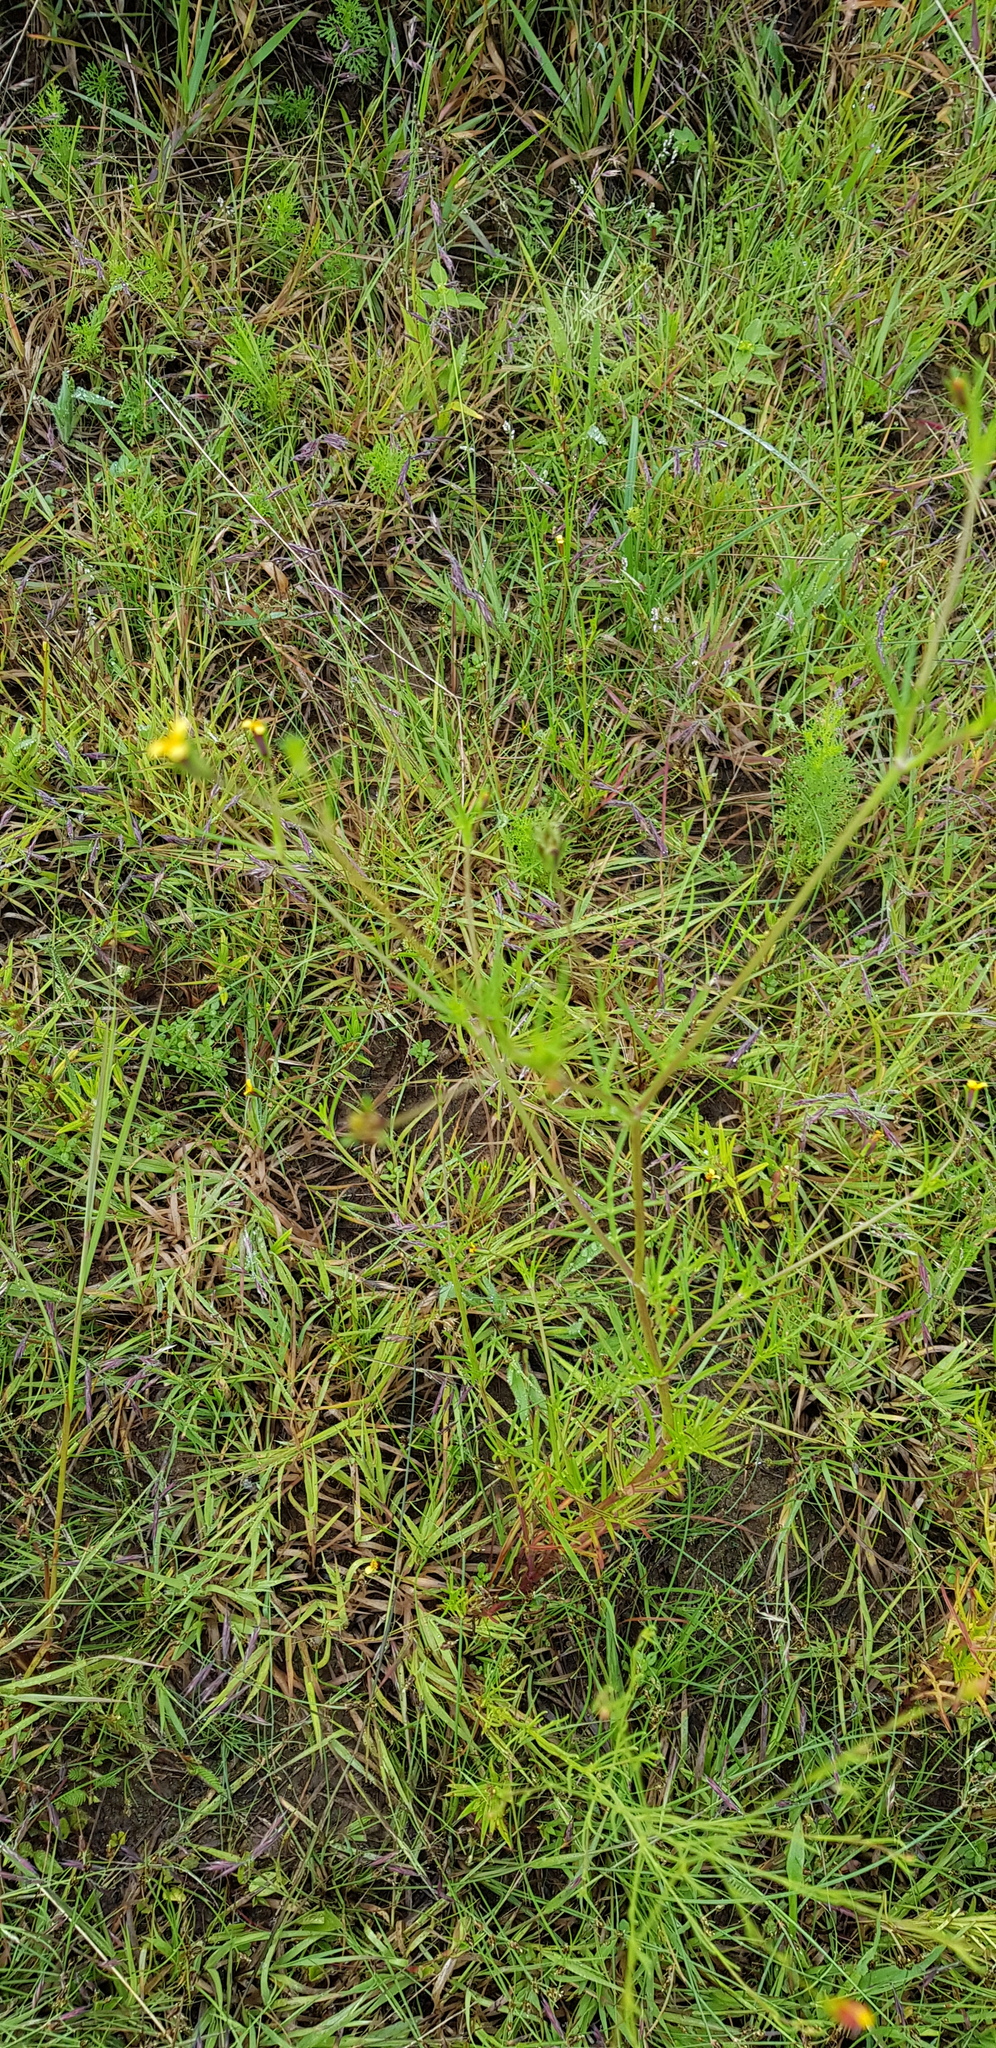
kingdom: Plantae
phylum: Tracheophyta
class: Magnoliopsida
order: Asterales
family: Asteraceae
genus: Heterosperma
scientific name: Heterosperma pinnatum
